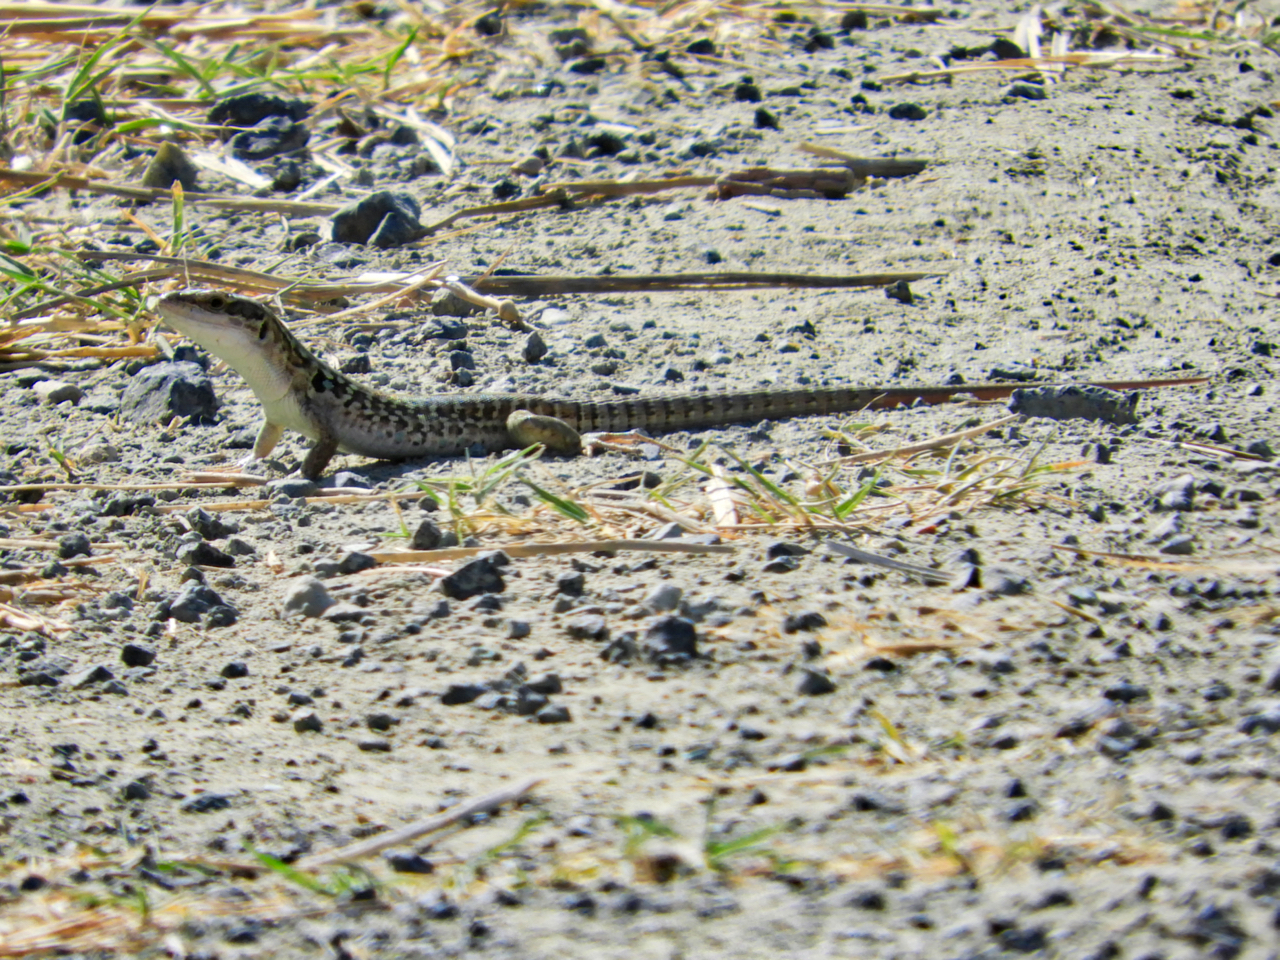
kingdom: Animalia
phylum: Chordata
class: Squamata
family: Lacertidae
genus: Podarcis
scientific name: Podarcis siculus
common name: Italian wall lizard
